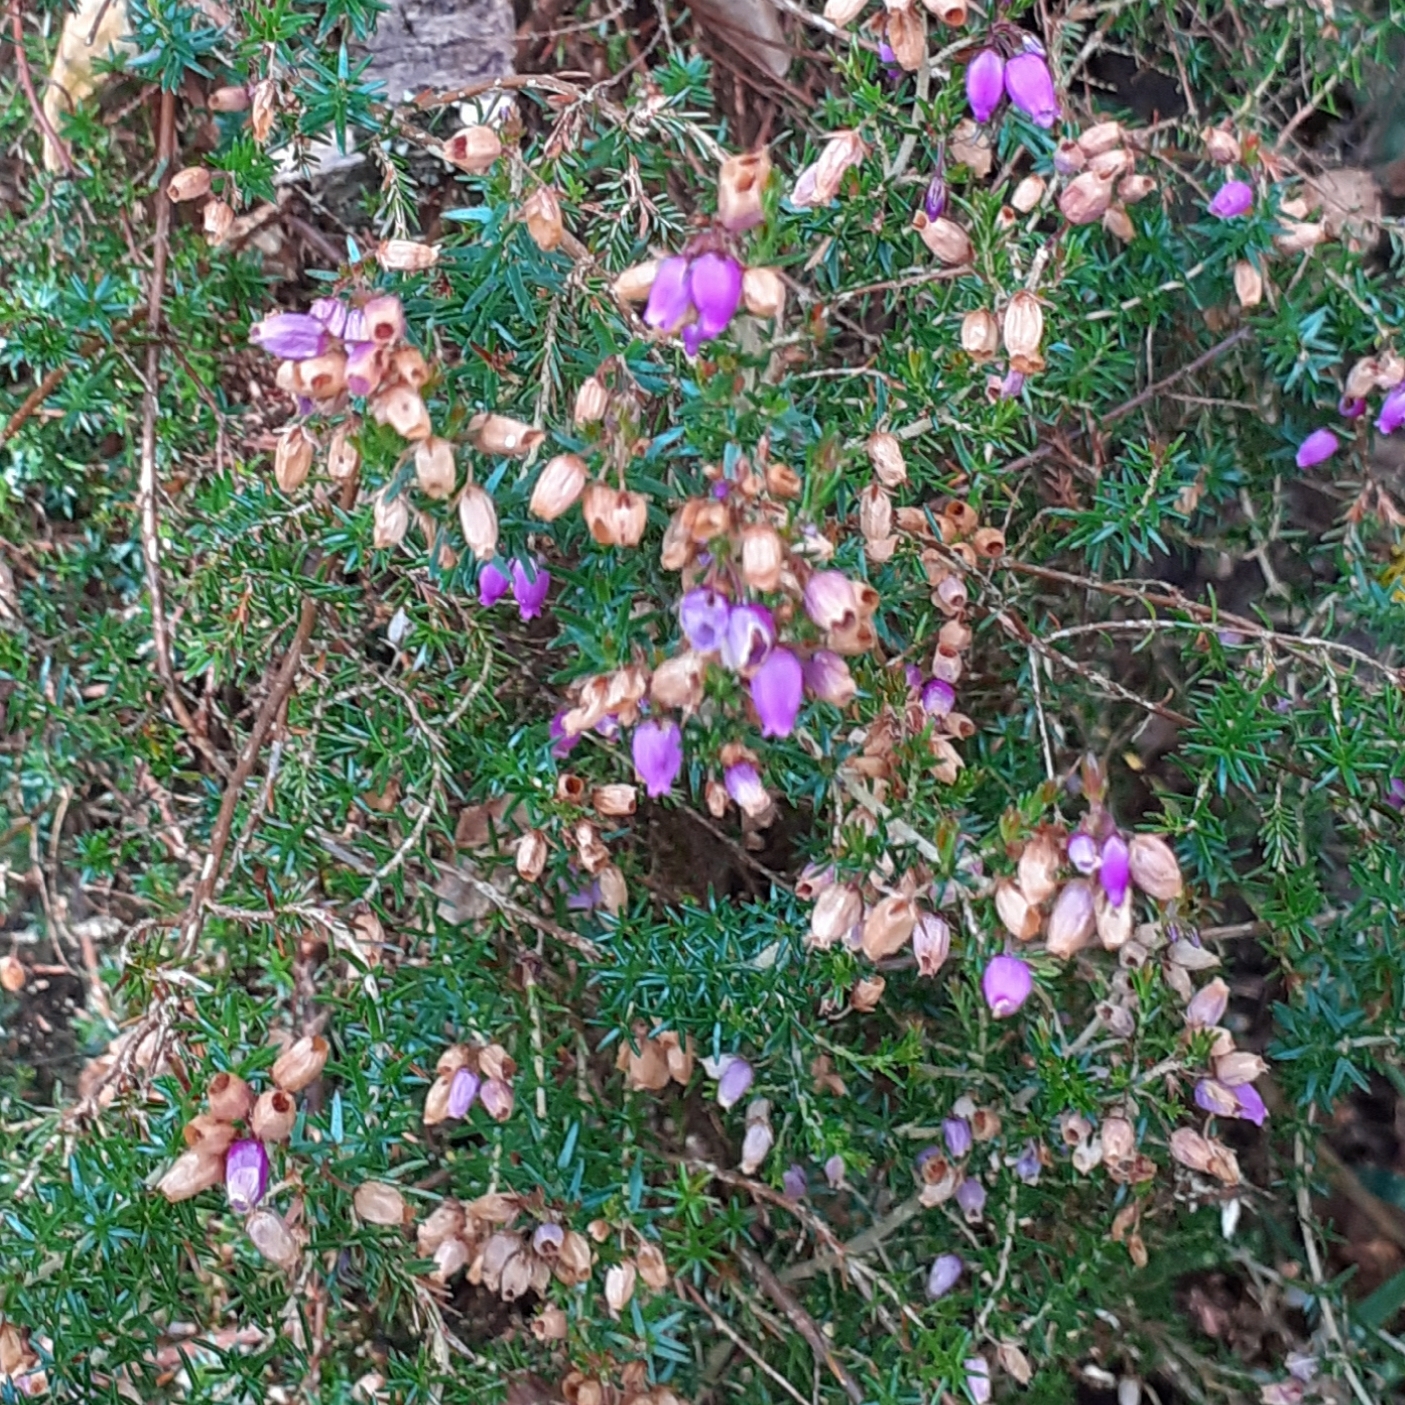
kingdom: Plantae
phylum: Tracheophyta
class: Magnoliopsida
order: Ericales
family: Ericaceae
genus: Erica
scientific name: Erica cinerea
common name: Bell heather
